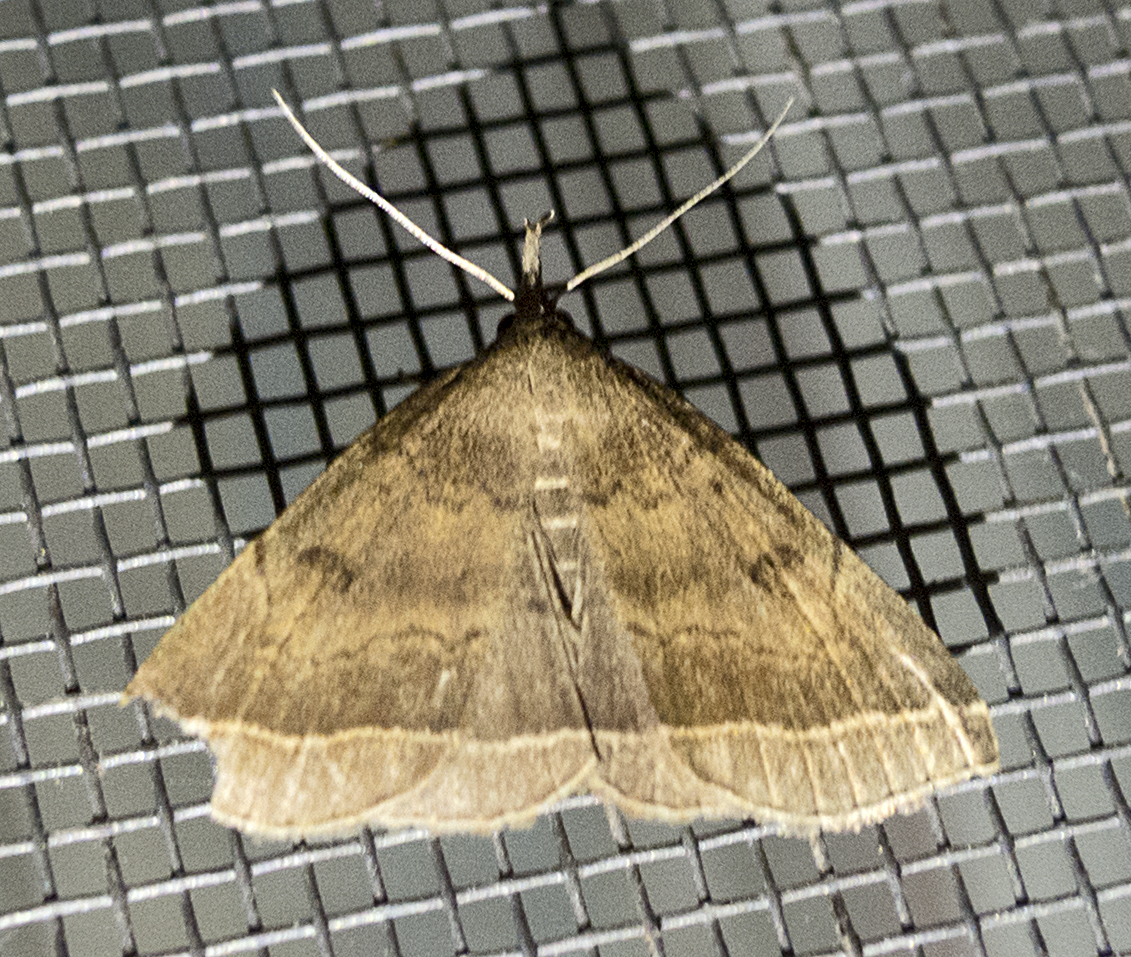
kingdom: Animalia
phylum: Arthropoda
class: Insecta
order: Lepidoptera
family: Erebidae
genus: Pechipogo
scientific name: Pechipogo plumigeralis
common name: Plumed fan-foot
